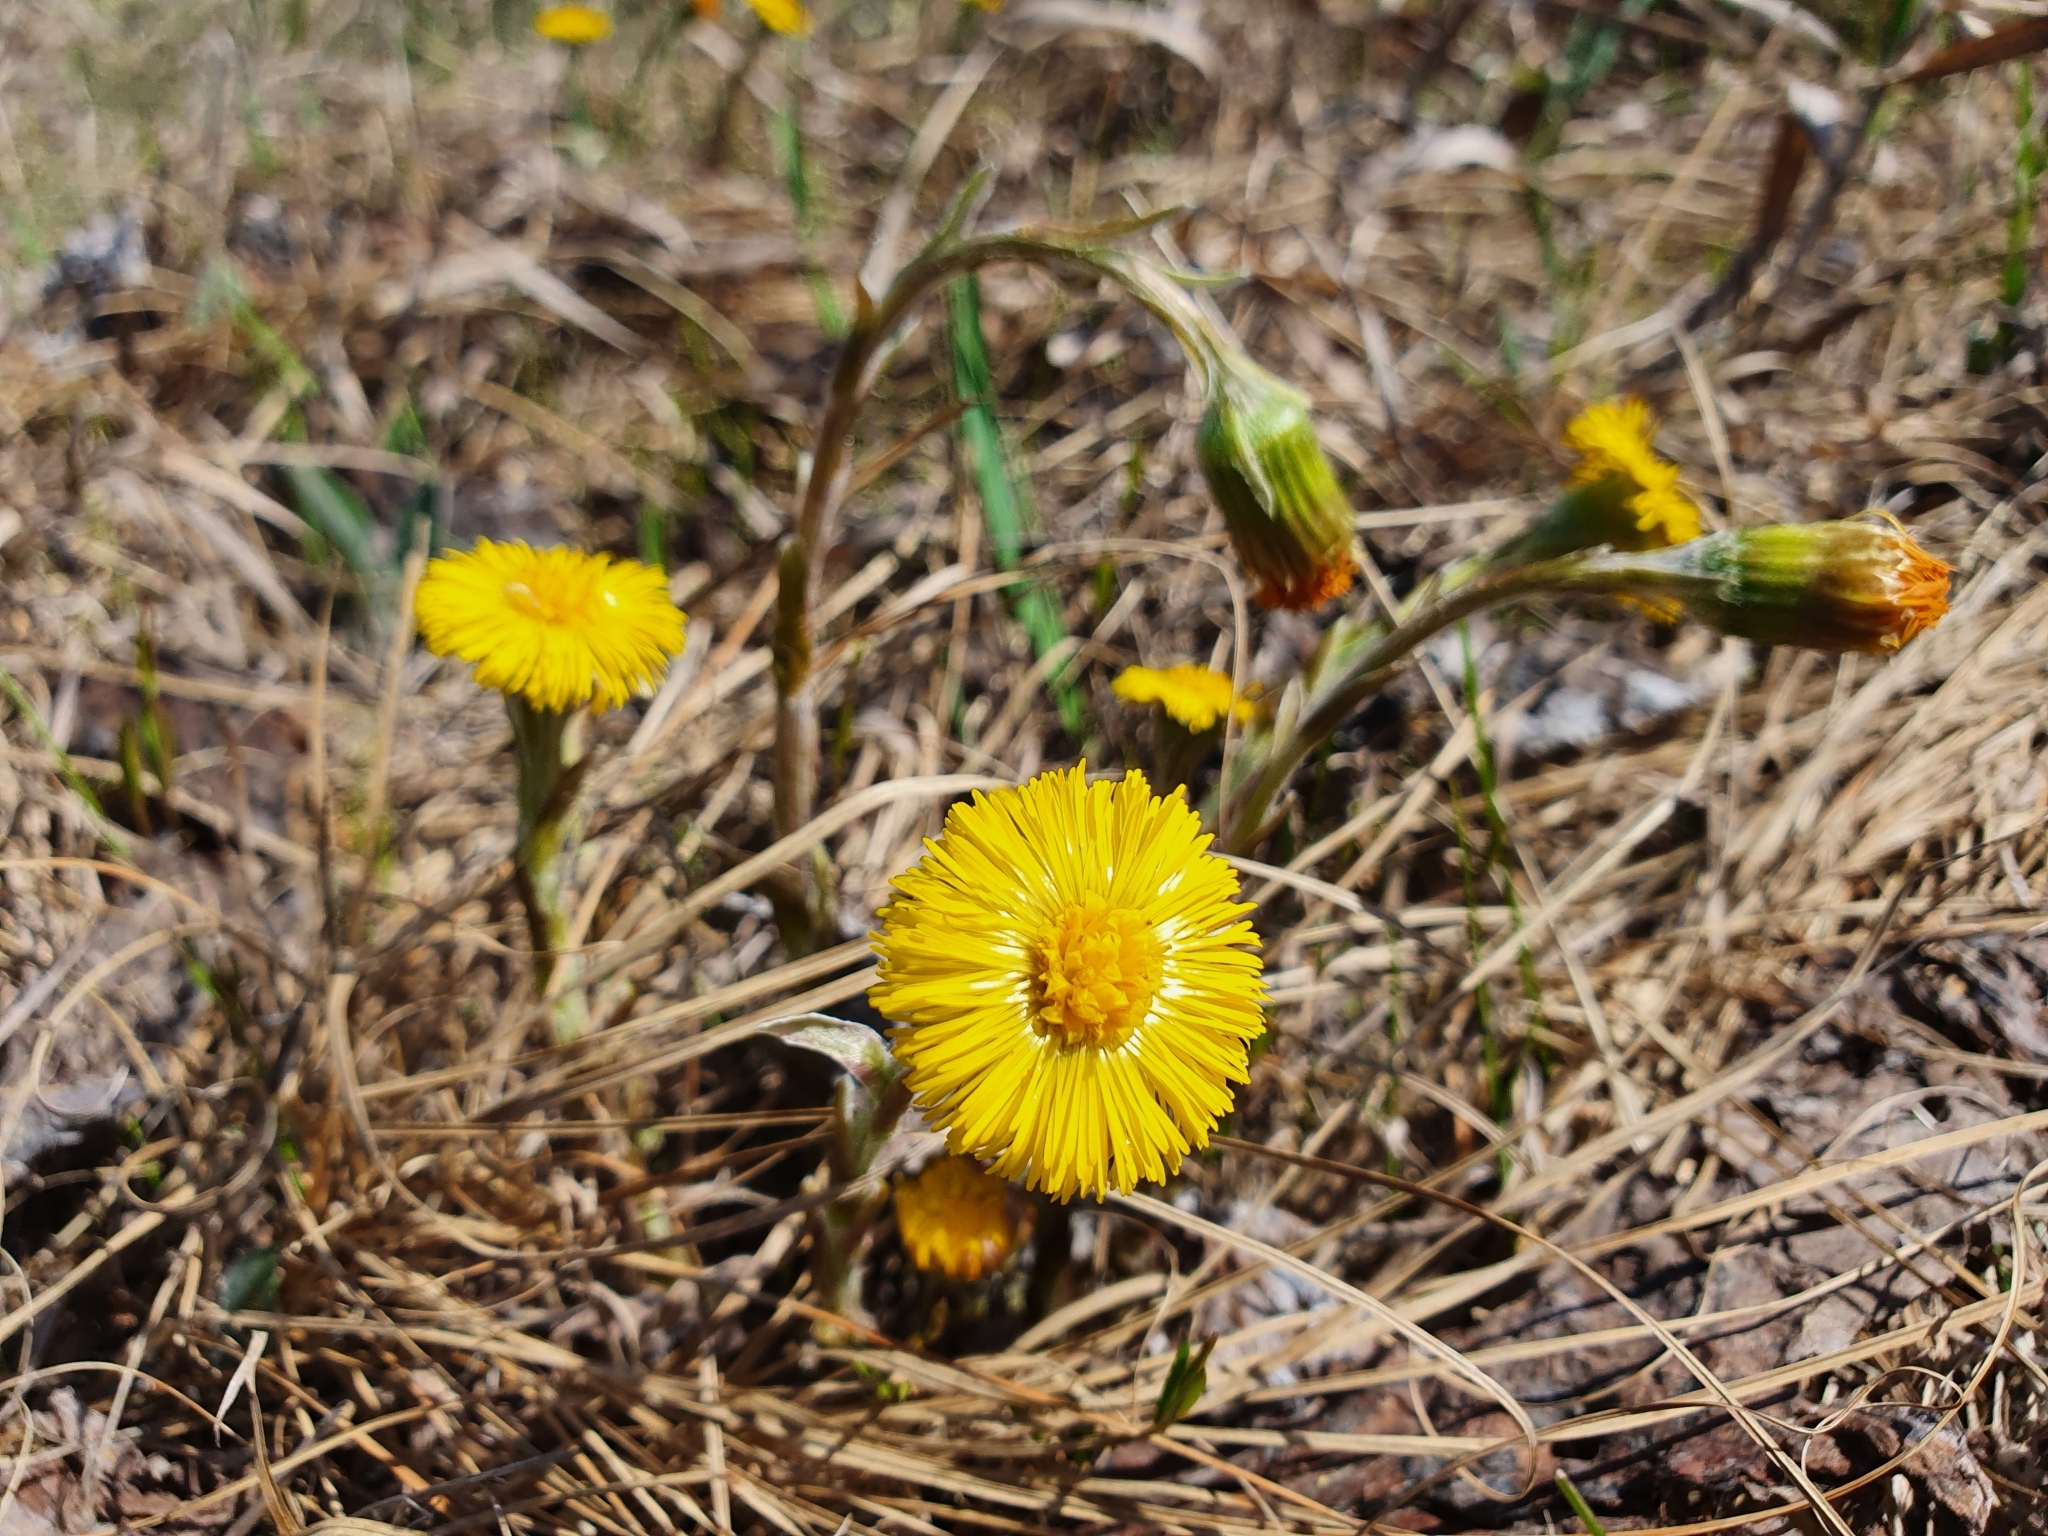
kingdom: Plantae
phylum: Tracheophyta
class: Magnoliopsida
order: Asterales
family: Asteraceae
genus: Tussilago
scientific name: Tussilago farfara
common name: Coltsfoot
